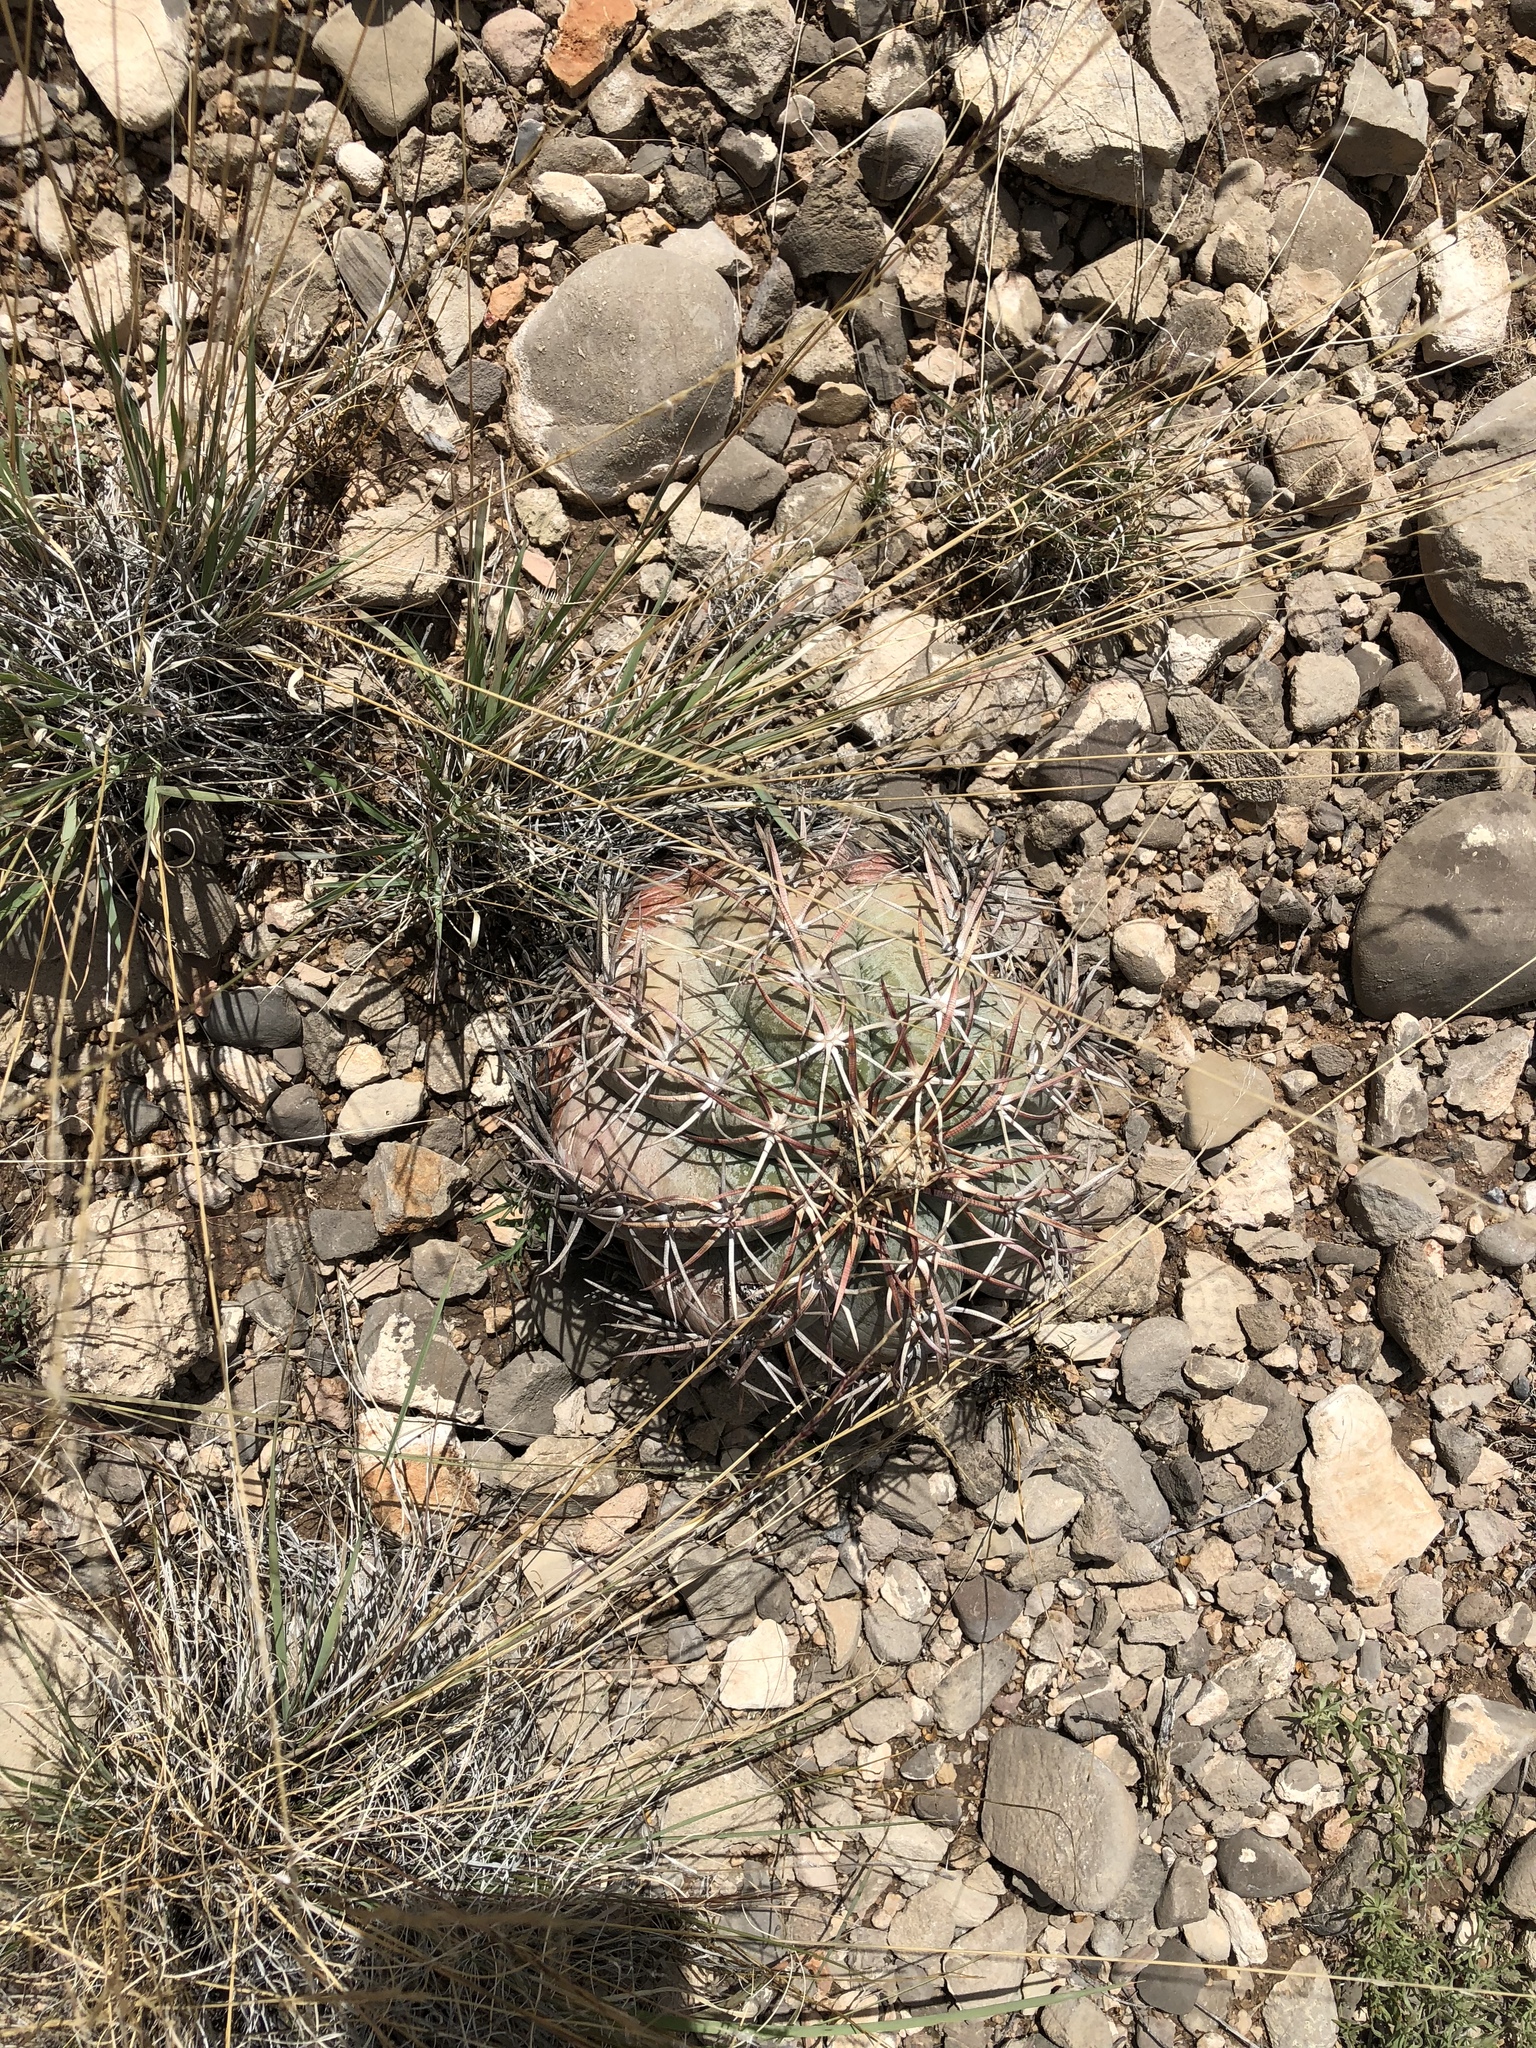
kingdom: Plantae
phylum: Tracheophyta
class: Magnoliopsida
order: Caryophyllales
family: Cactaceae
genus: Echinocactus
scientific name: Echinocactus horizonthalonius
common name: Devilshead
